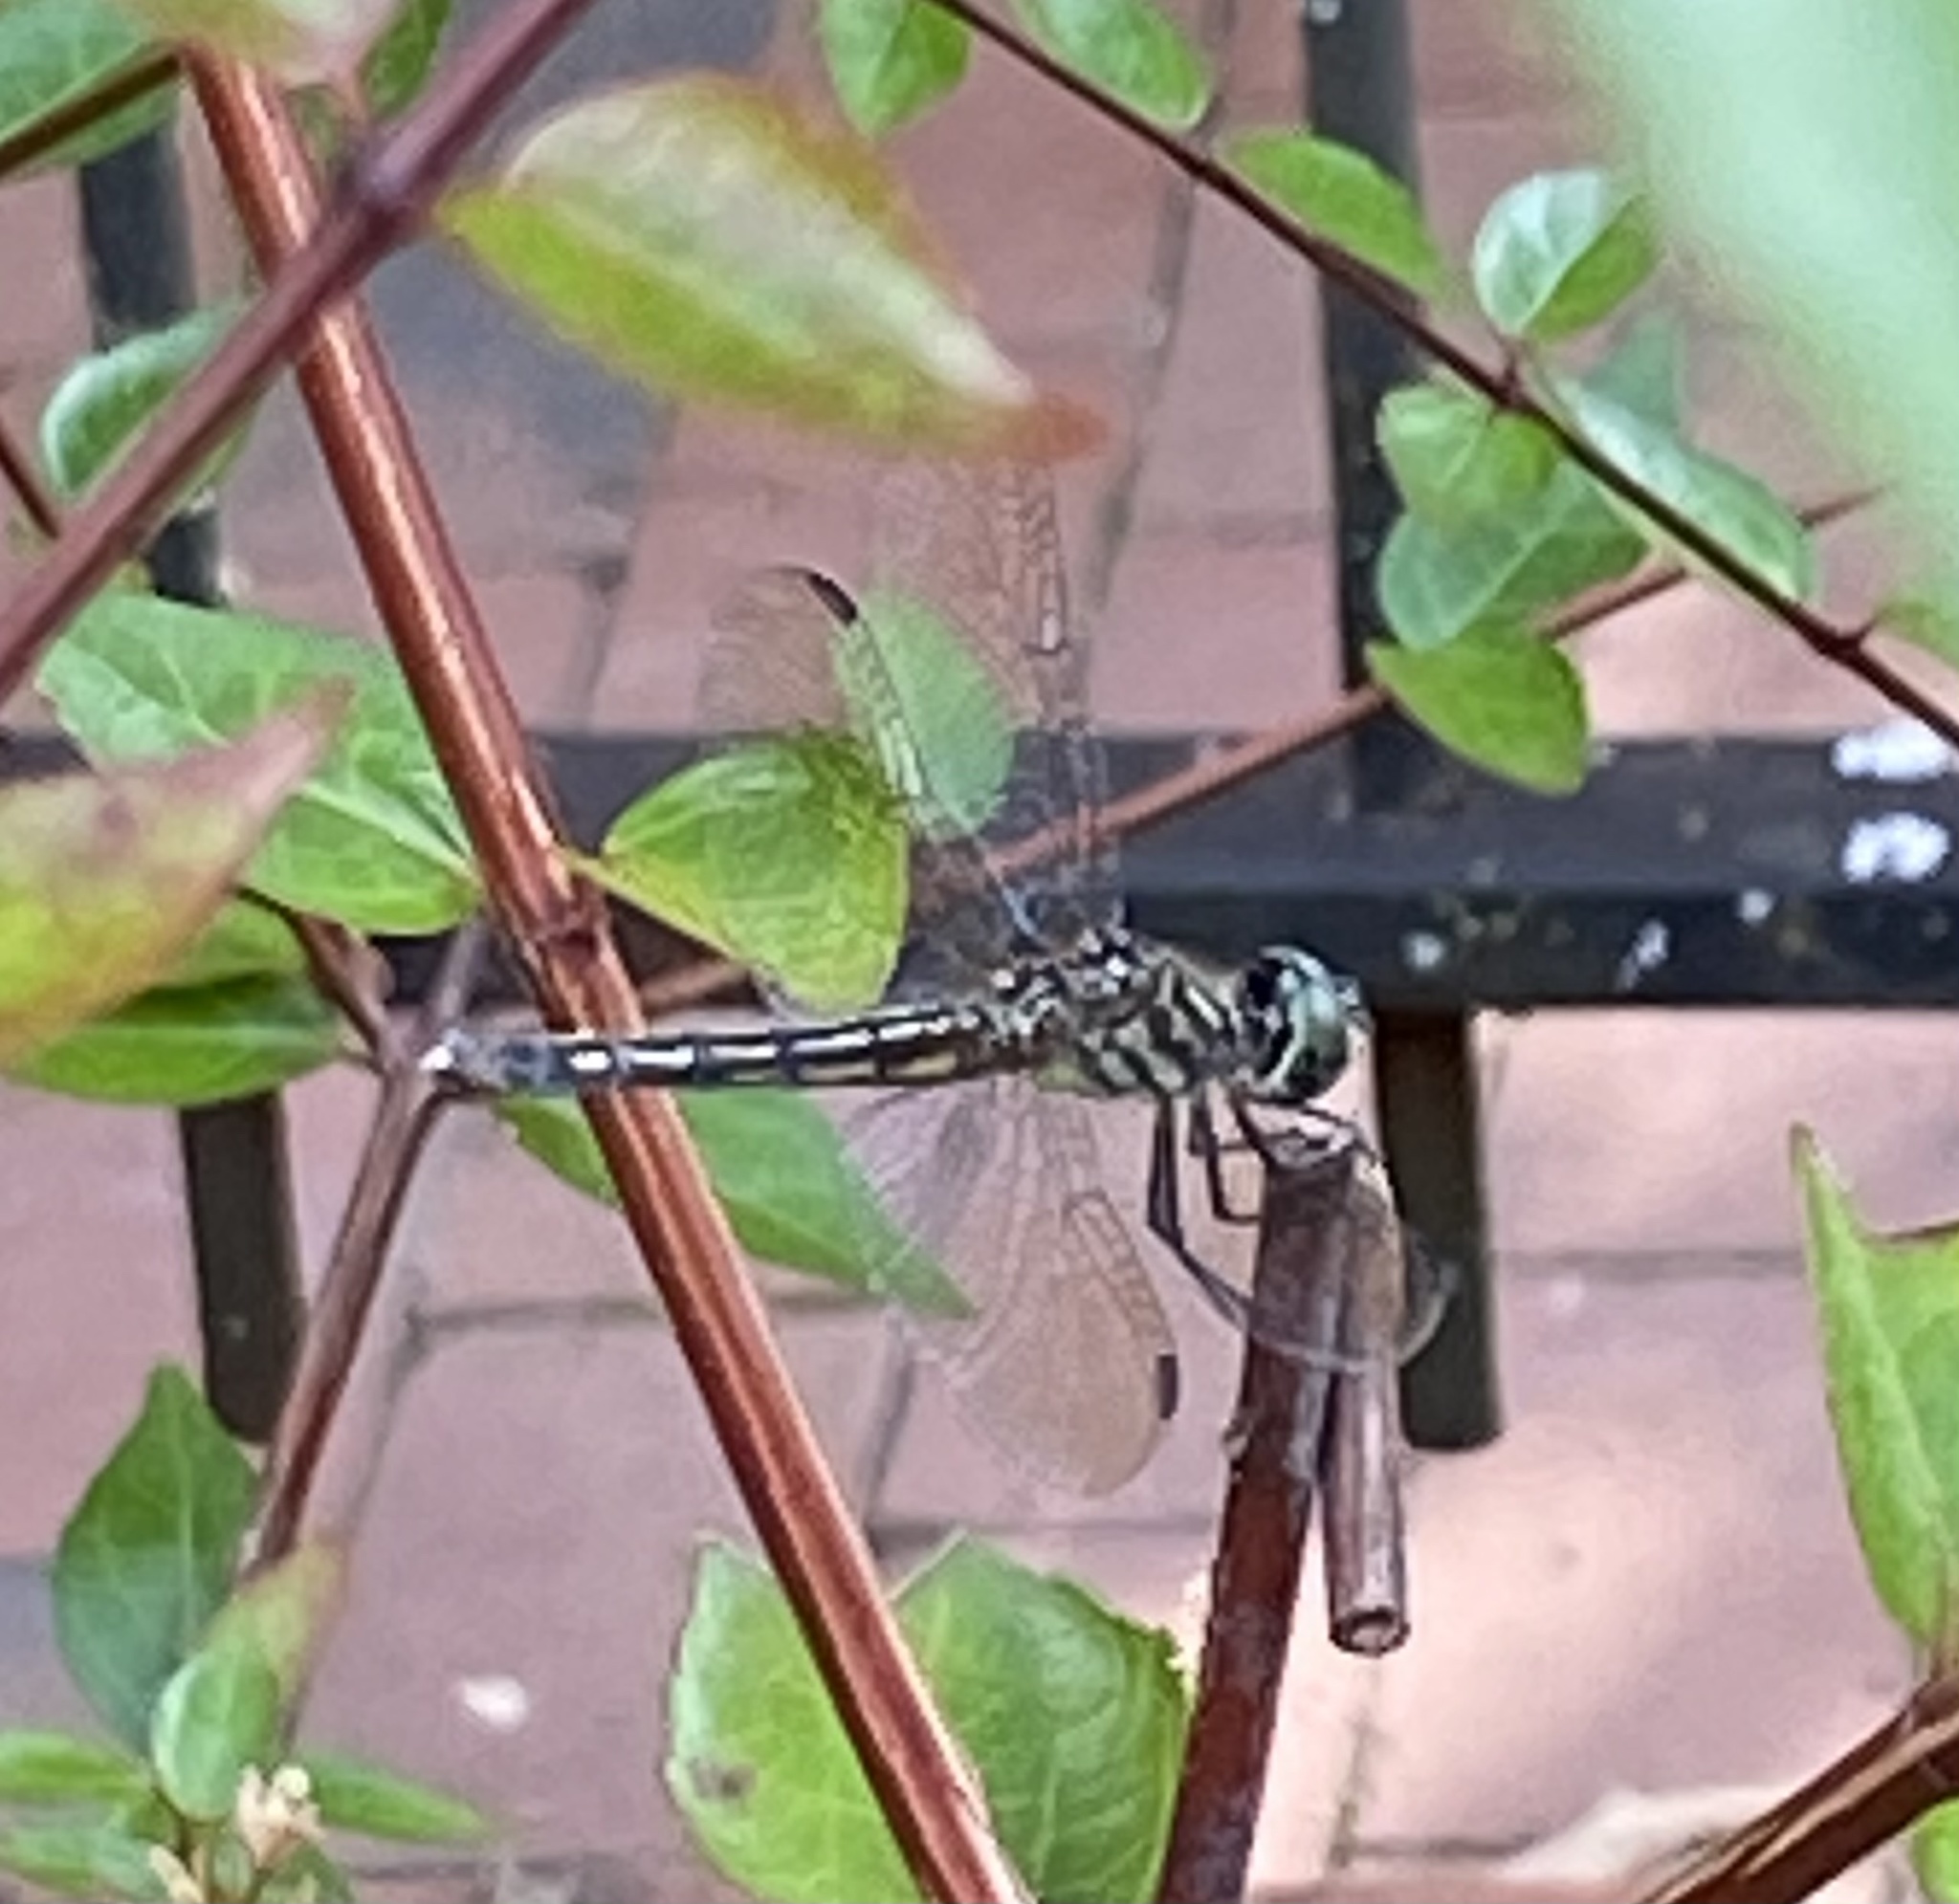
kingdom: Animalia
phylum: Arthropoda
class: Insecta
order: Odonata
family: Libellulidae
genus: Pachydiplax
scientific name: Pachydiplax longipennis
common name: Blue dasher
